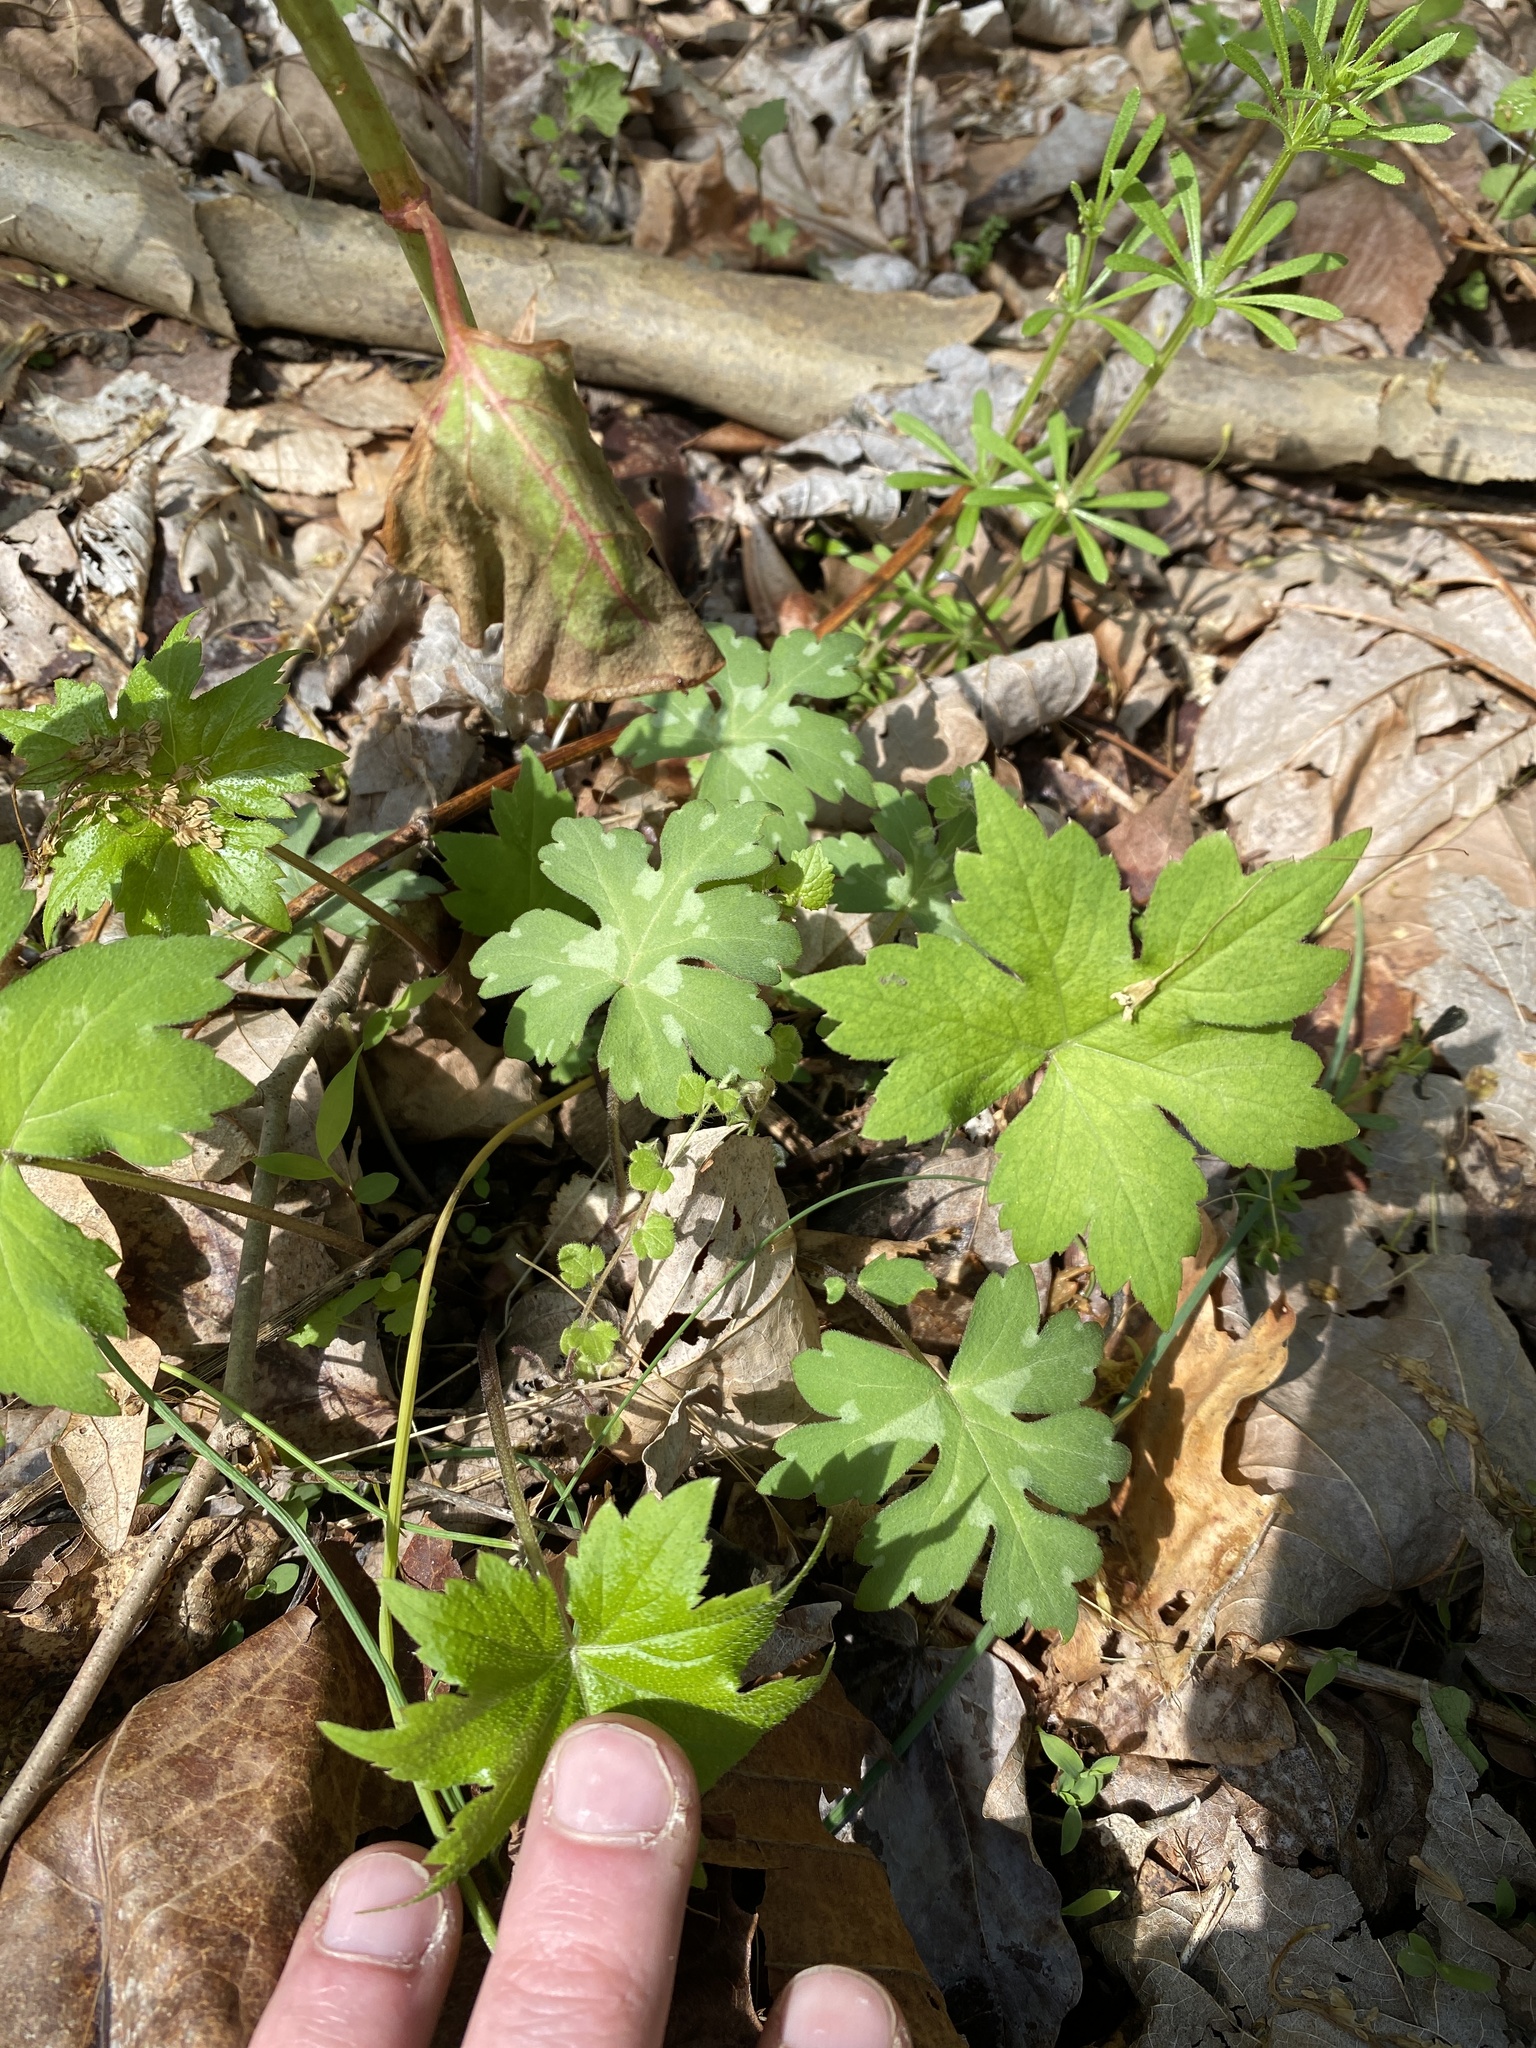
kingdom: Plantae
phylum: Tracheophyta
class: Magnoliopsida
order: Boraginales
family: Hydrophyllaceae
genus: Hydrophyllum
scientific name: Hydrophyllum canadense
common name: Canada waterleaf
